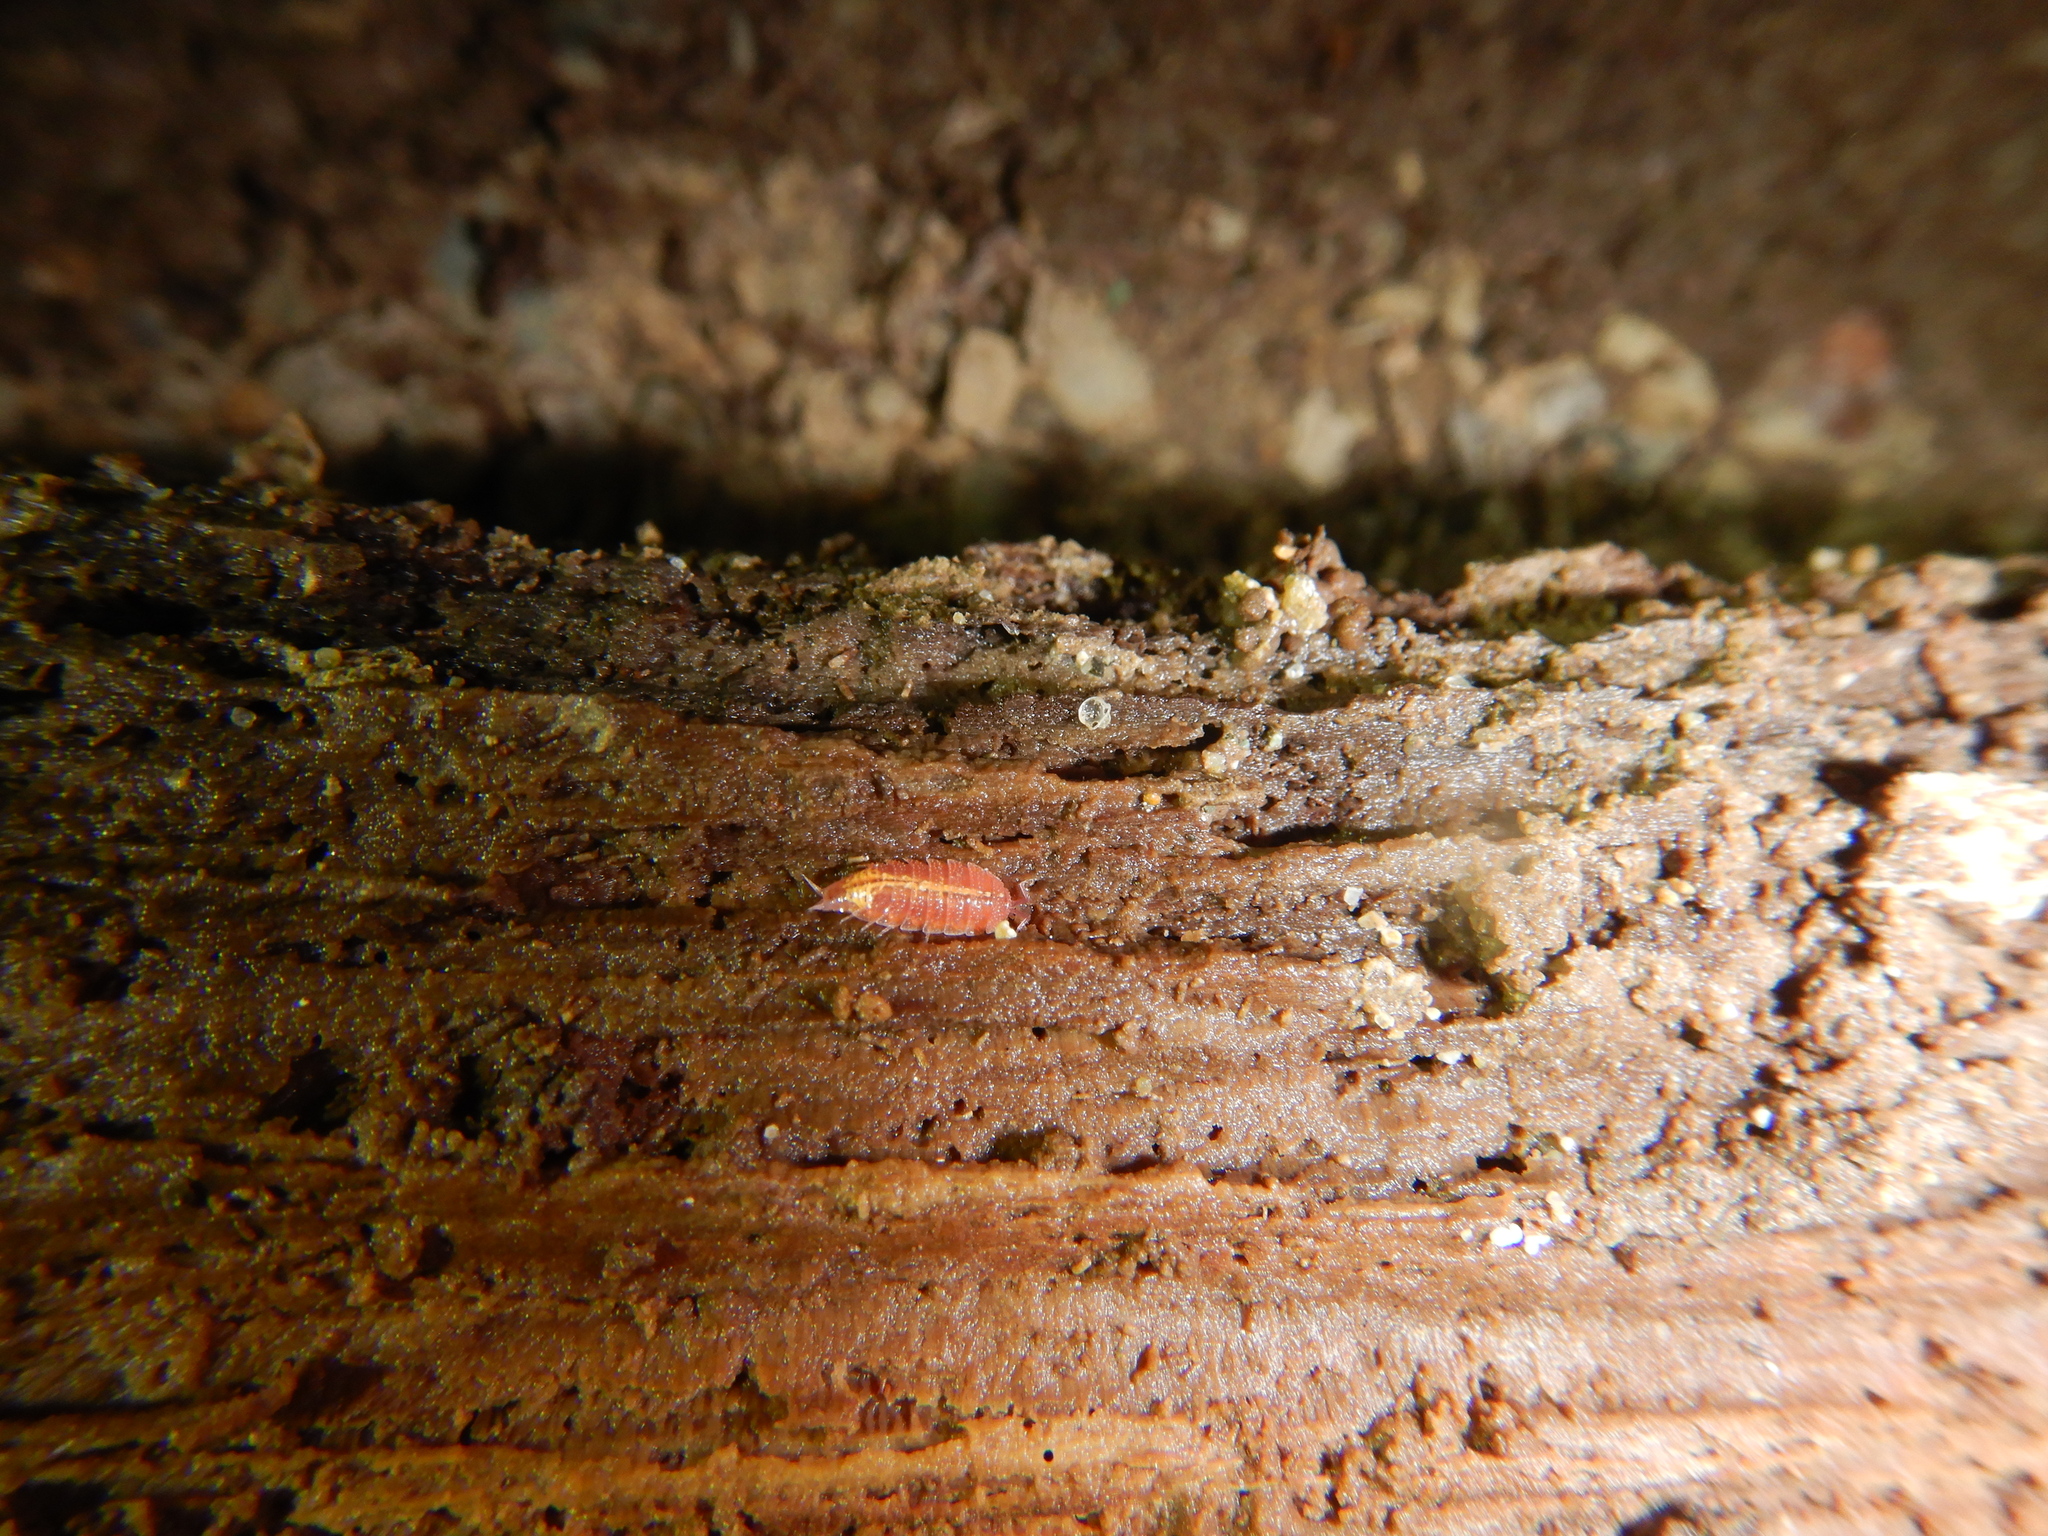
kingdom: Animalia
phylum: Arthropoda
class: Malacostraca
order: Isopoda
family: Trichoniscidae
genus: Androniscus
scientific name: Androniscus dentiger
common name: Rosy woodlouse
